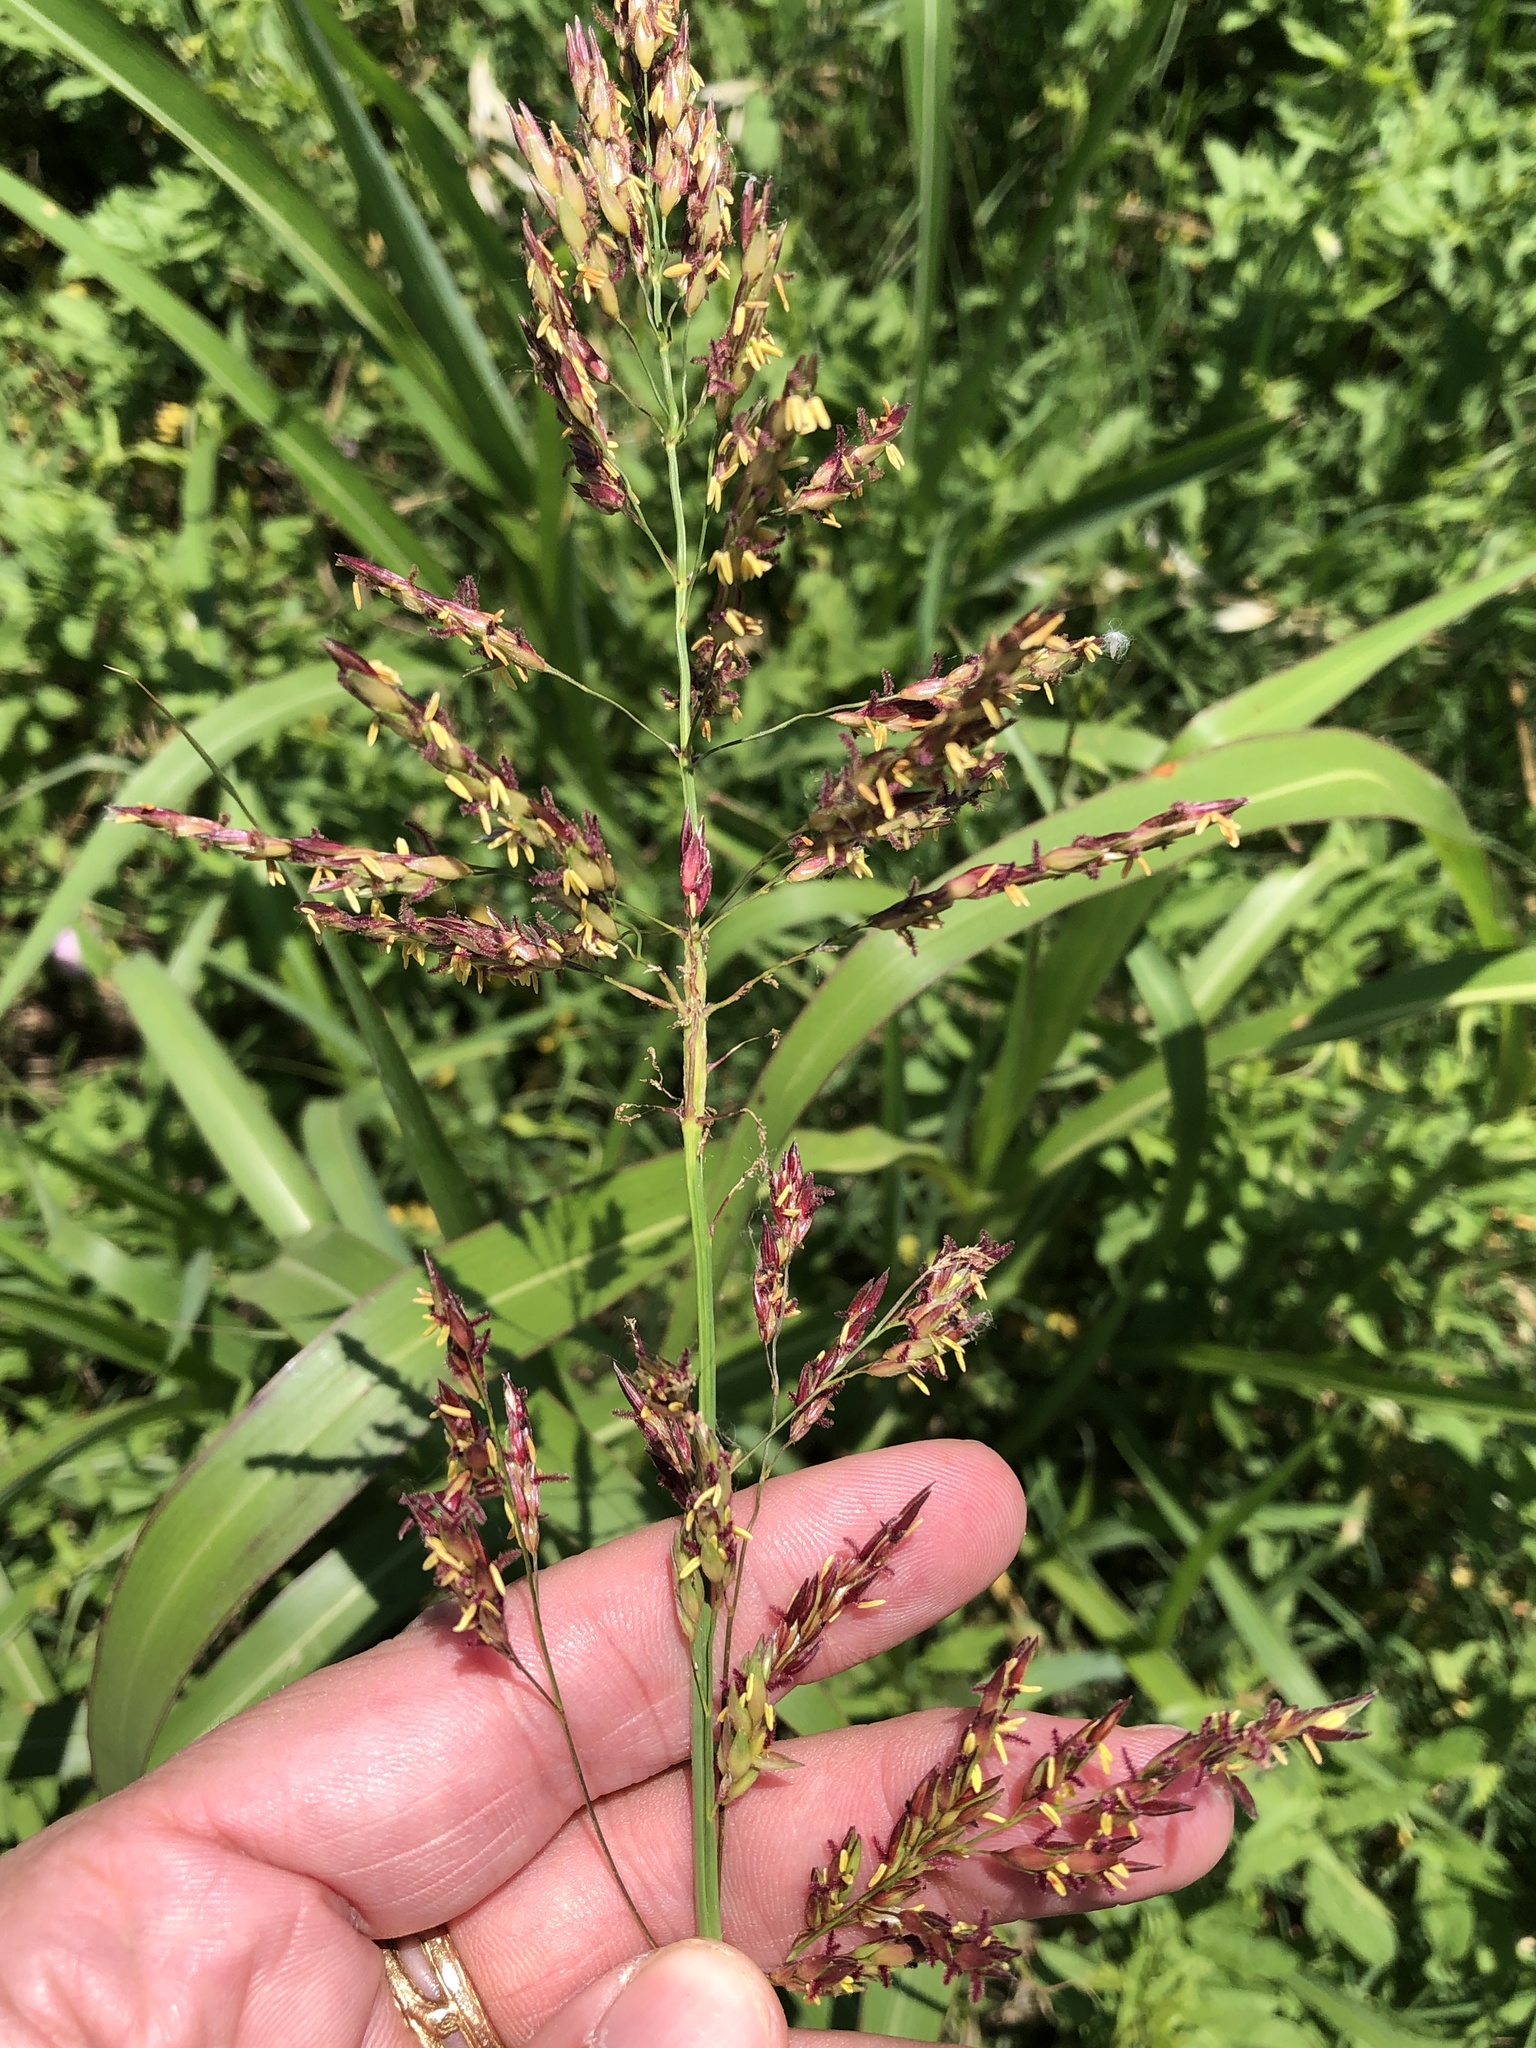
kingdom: Plantae
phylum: Tracheophyta
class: Liliopsida
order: Poales
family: Poaceae
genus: Sorghum
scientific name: Sorghum halepense
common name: Johnson-grass
